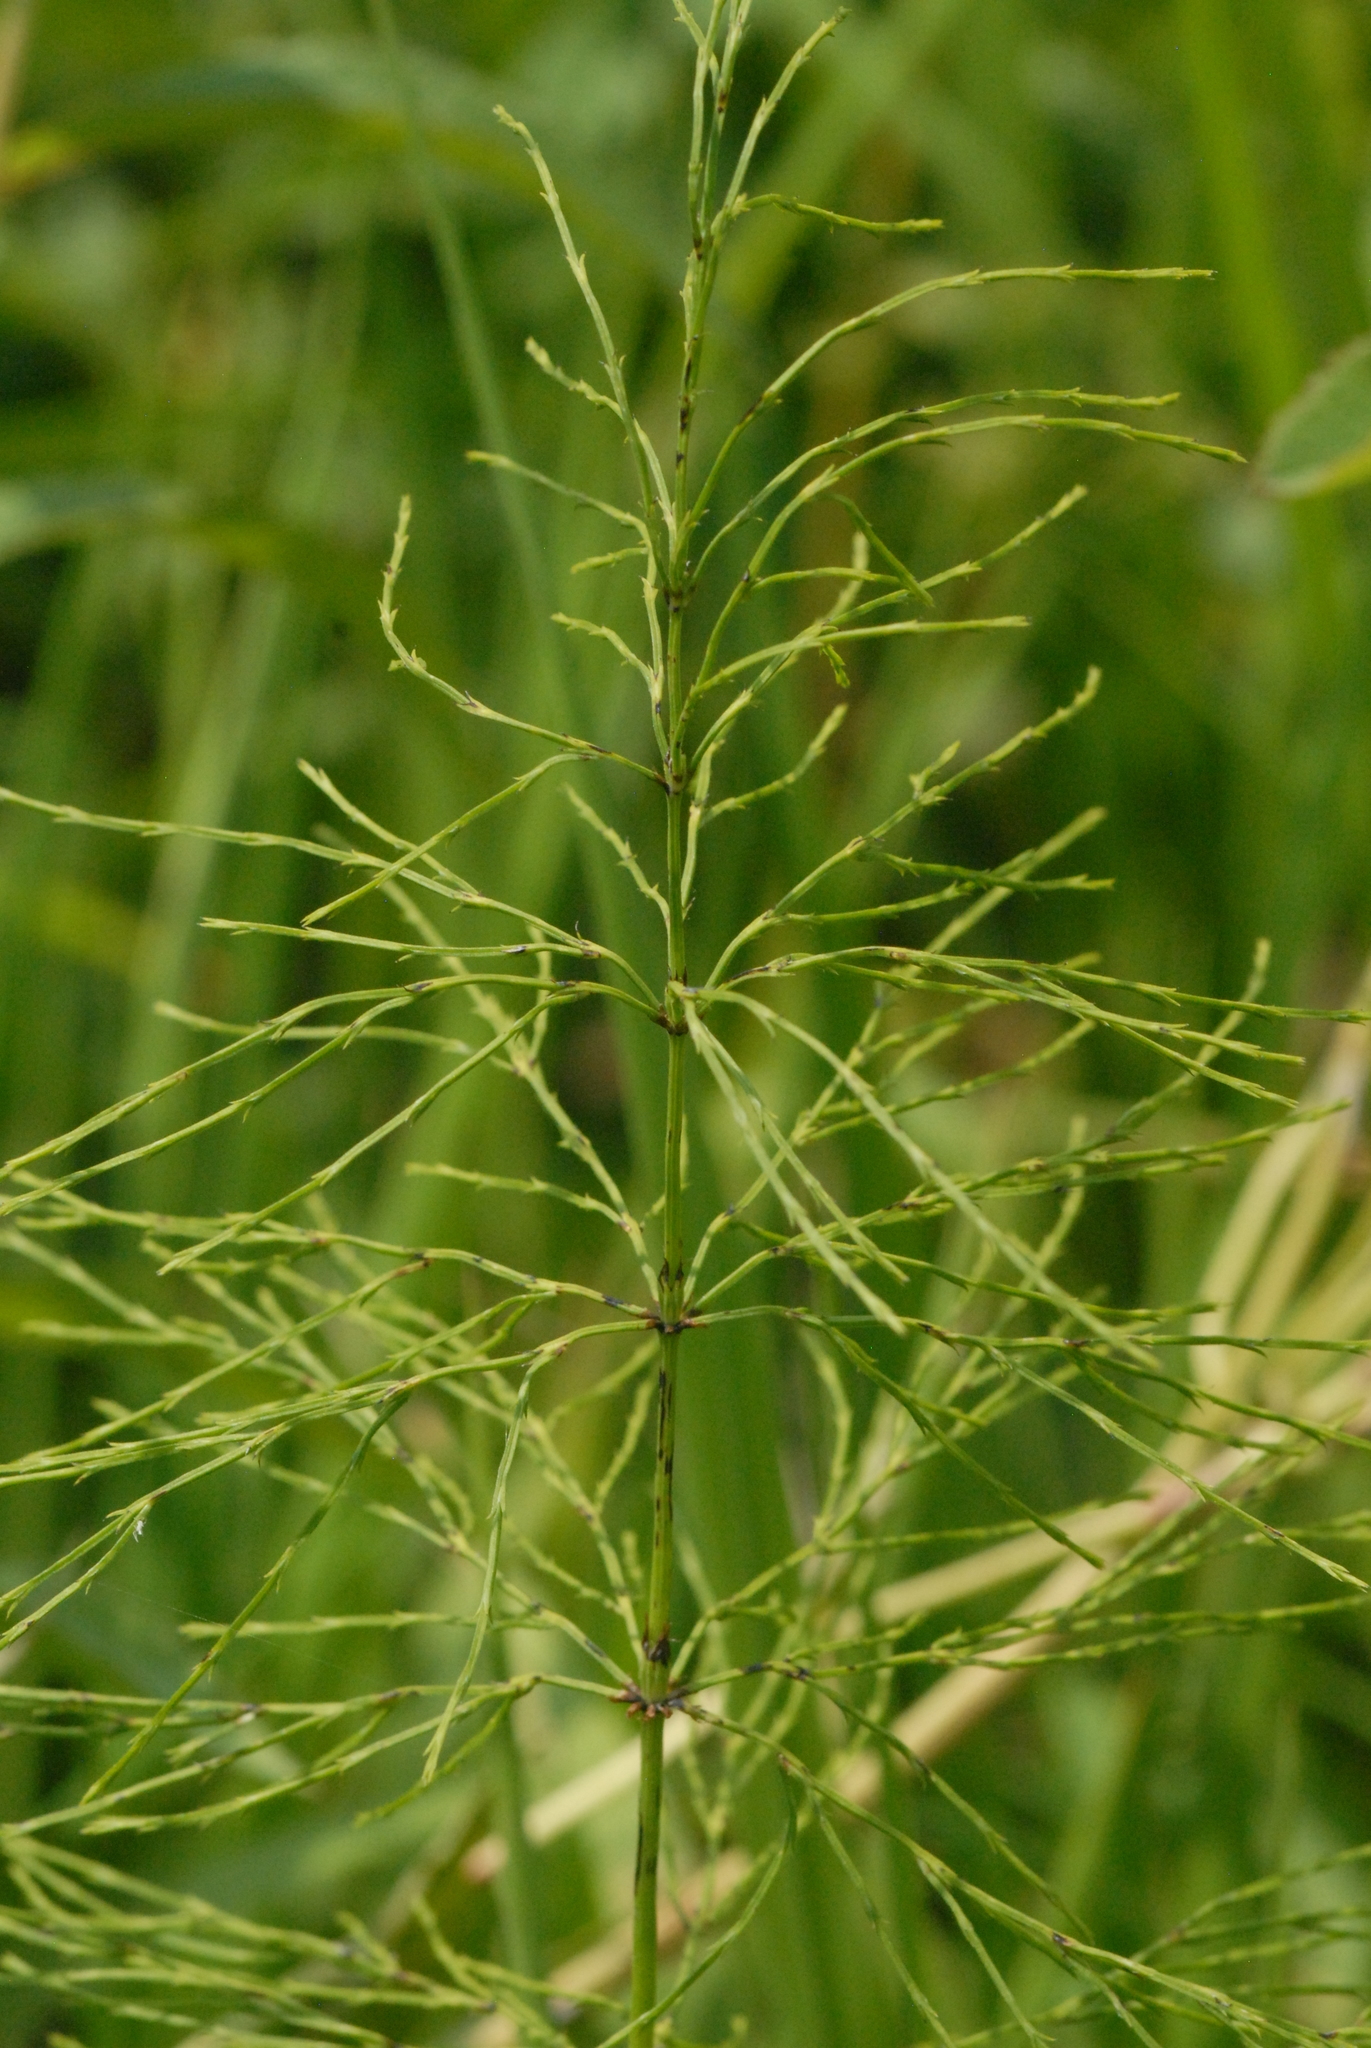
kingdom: Plantae
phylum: Tracheophyta
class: Polypodiopsida
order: Equisetales
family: Equisetaceae
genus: Equisetum
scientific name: Equisetum sylvaticum
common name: Wood horsetail
